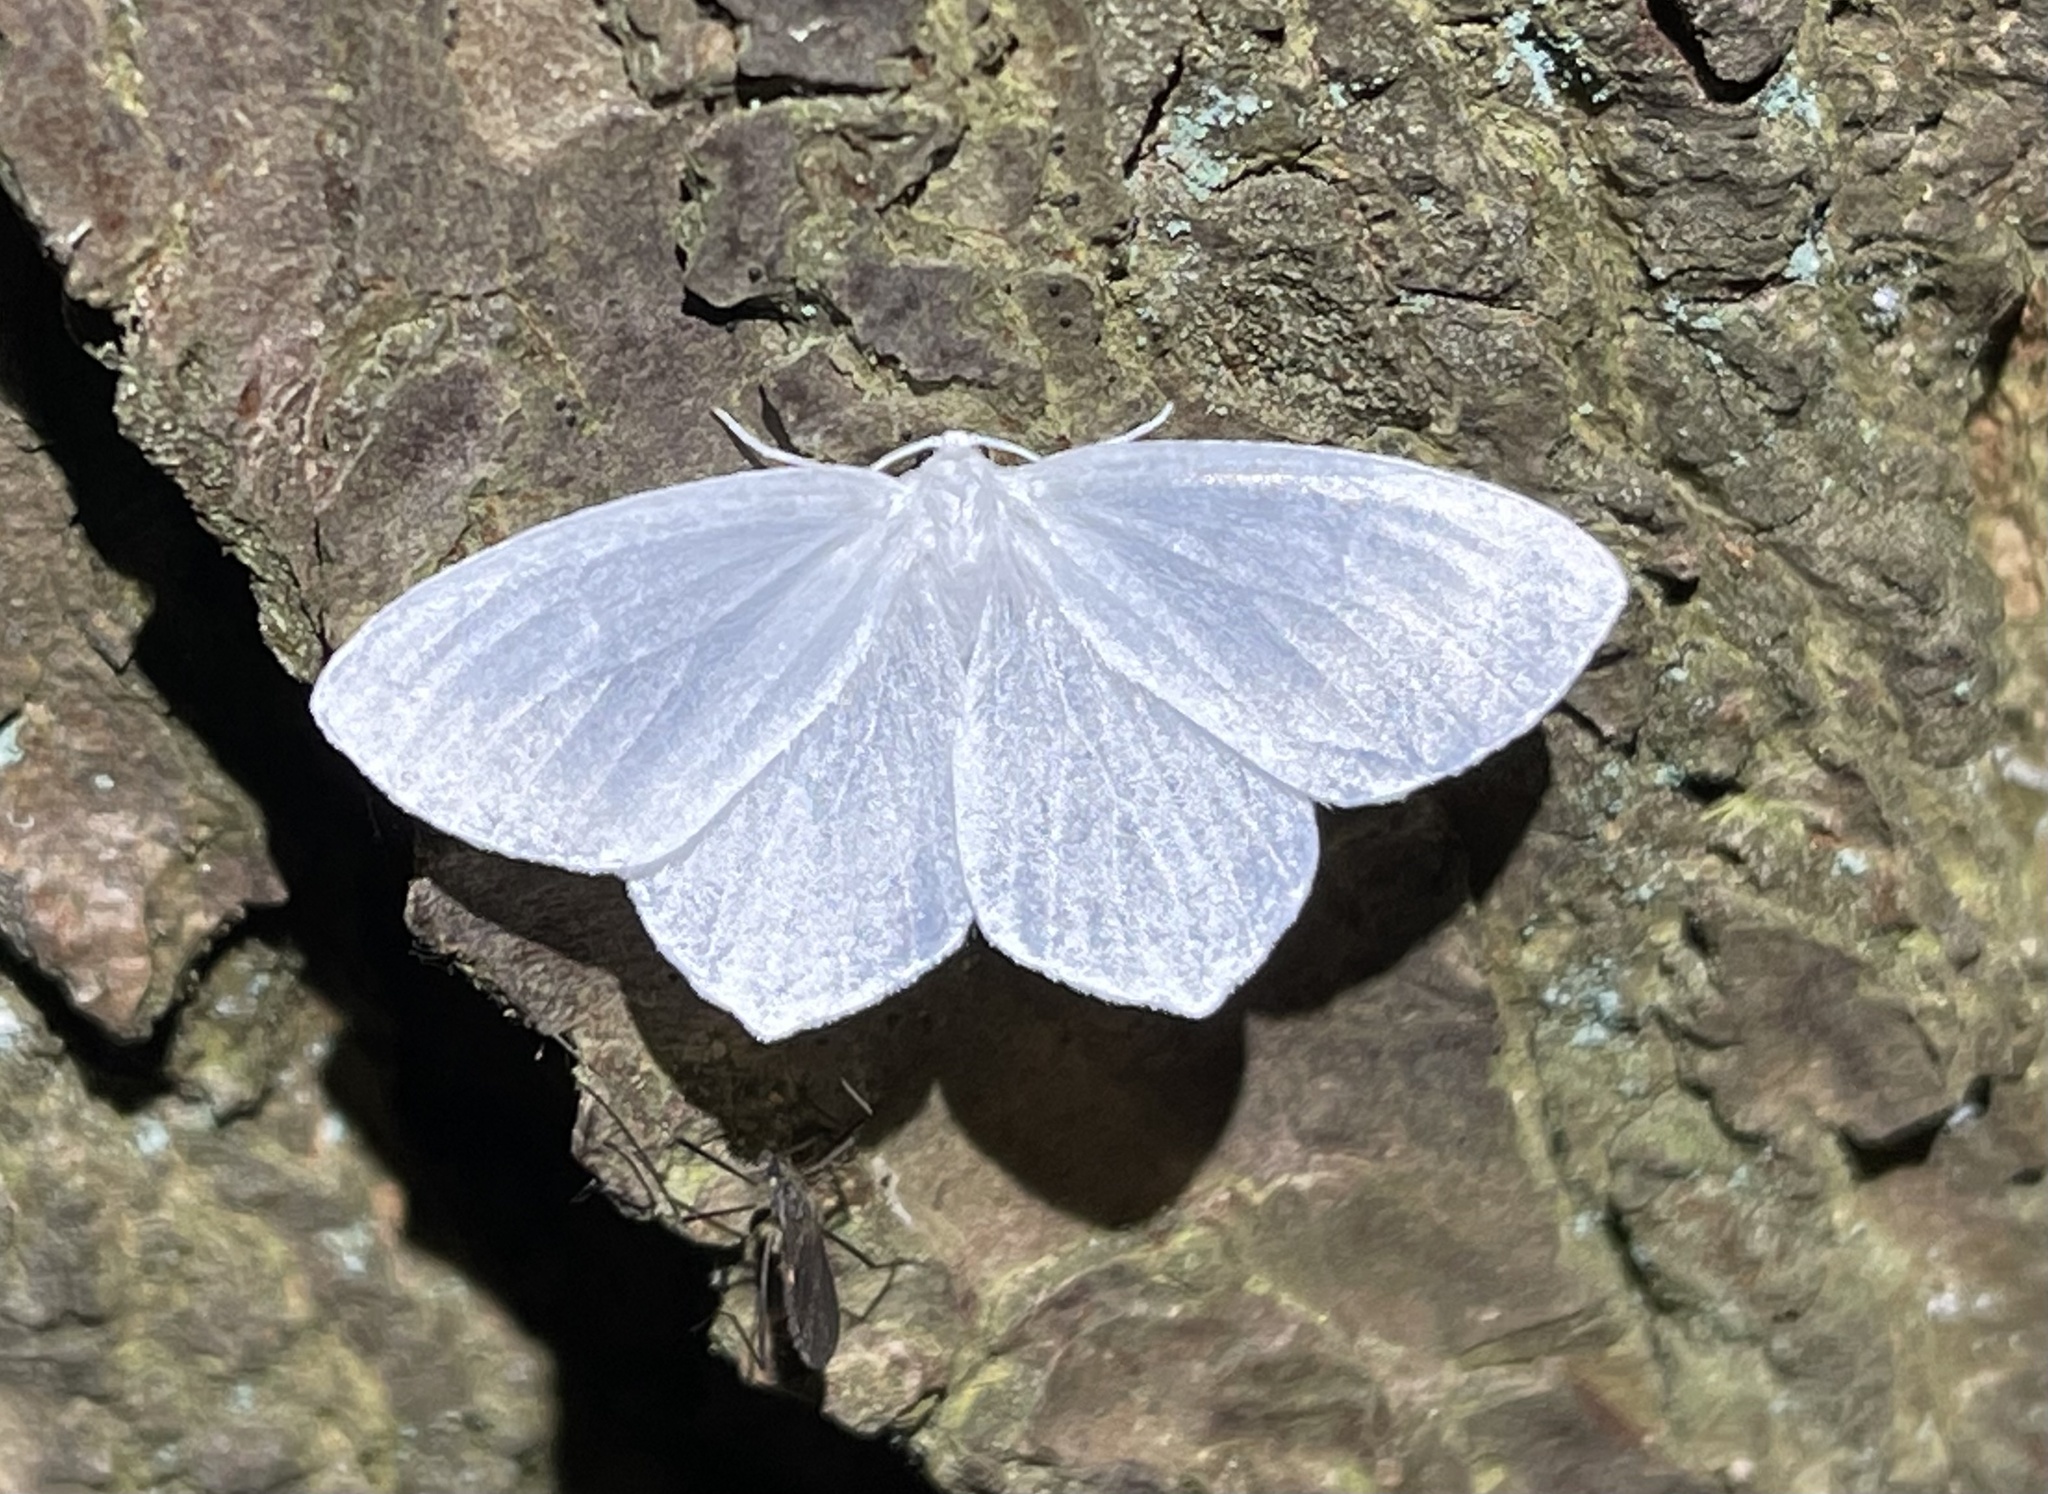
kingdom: Animalia
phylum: Arthropoda
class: Insecta
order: Lepidoptera
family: Geometridae
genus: Eugonobapta
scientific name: Eugonobapta nivosaria
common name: Snowy geometer
